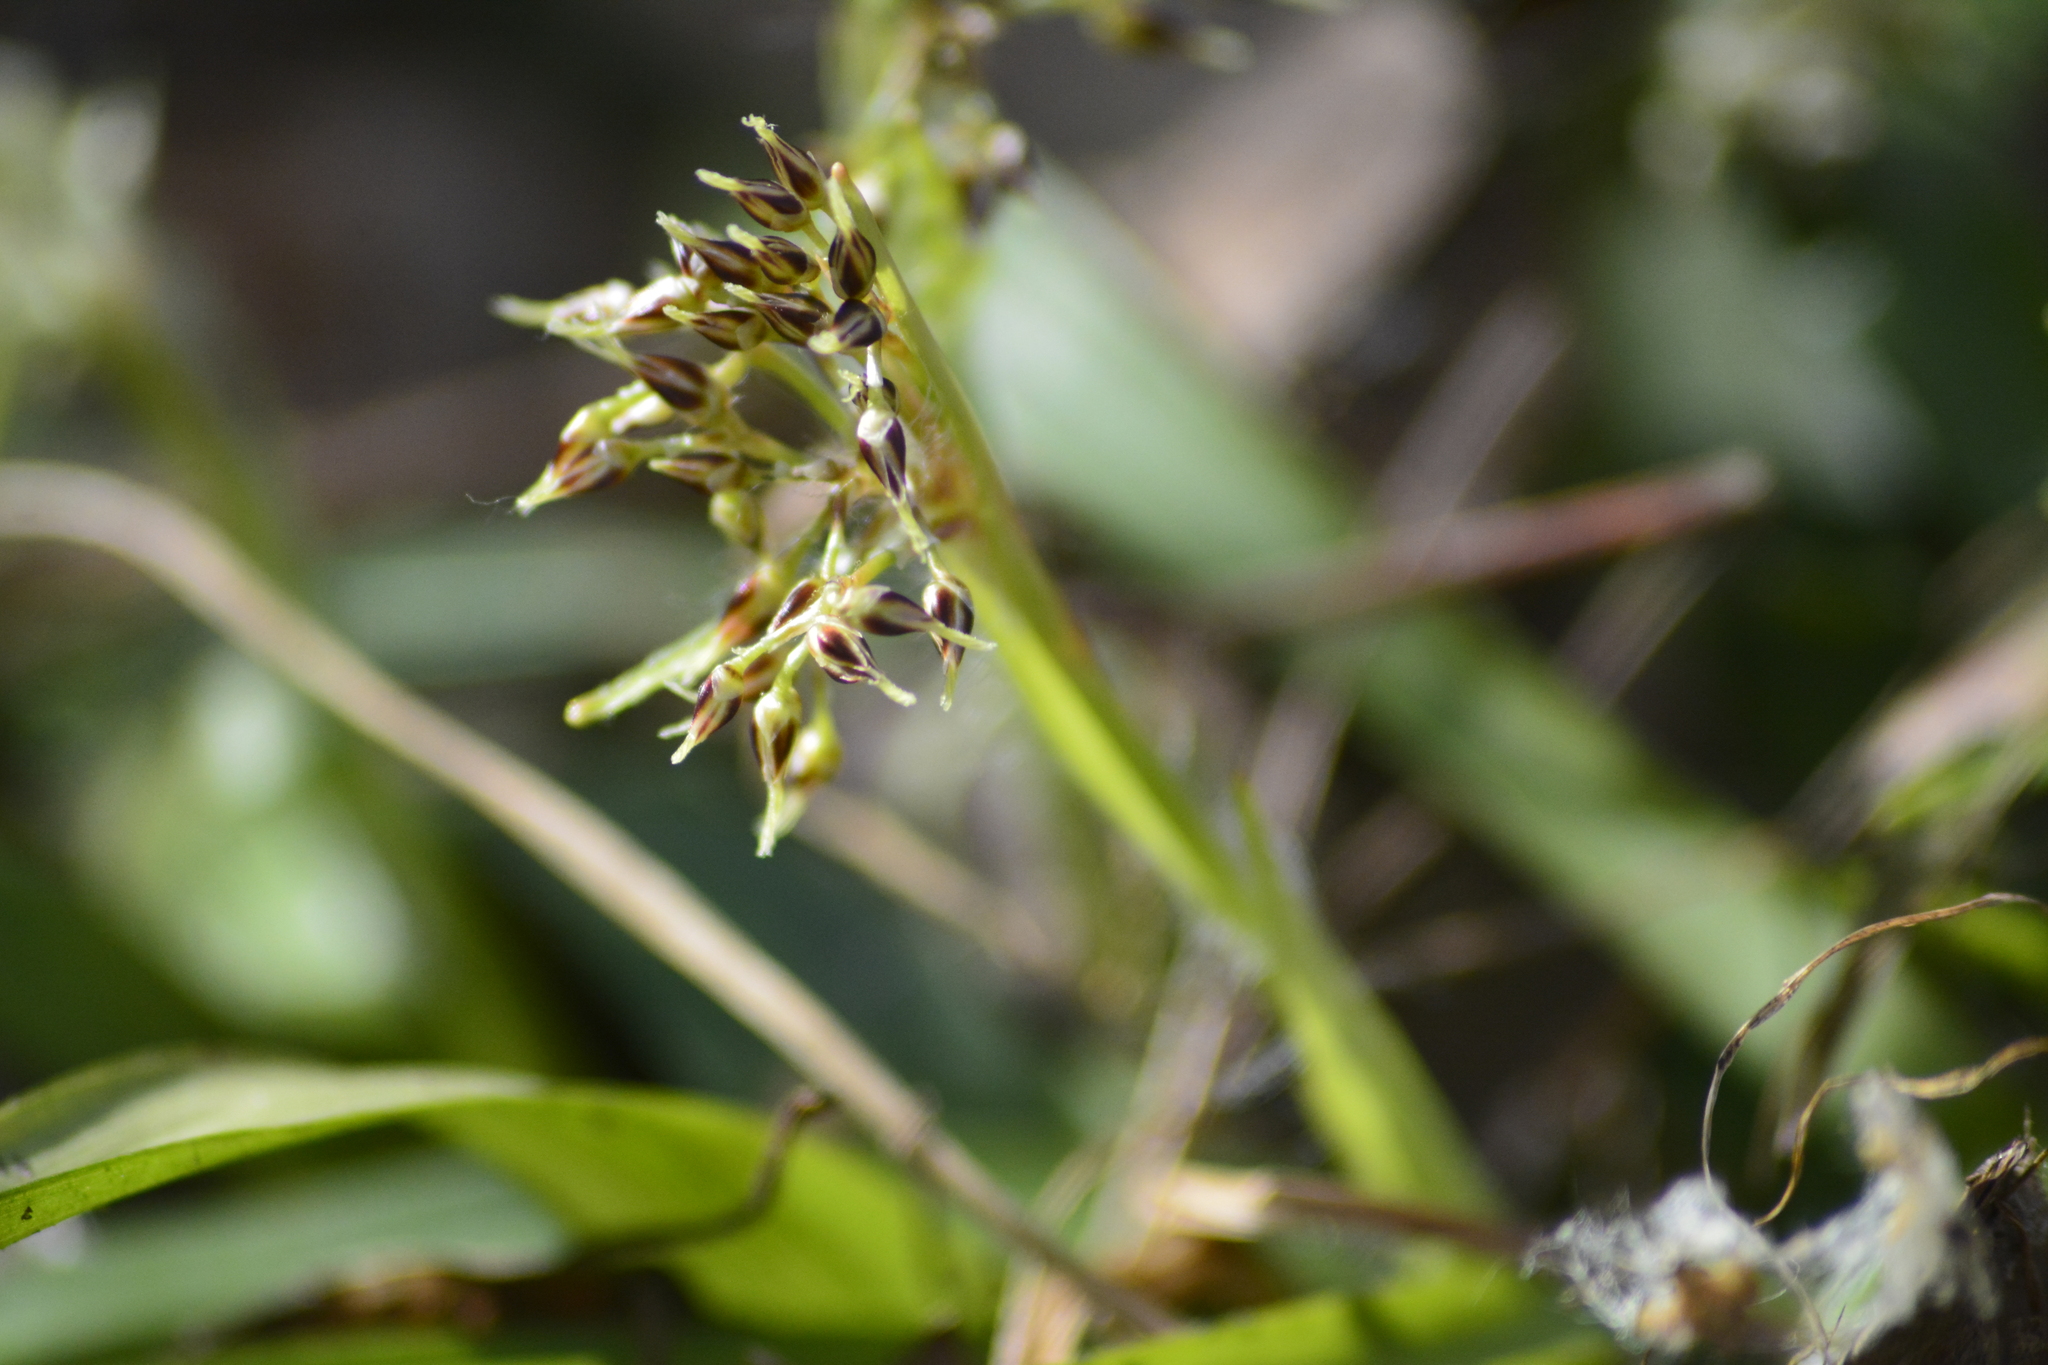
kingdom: Plantae
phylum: Tracheophyta
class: Liliopsida
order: Poales
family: Juncaceae
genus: Luzula
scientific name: Luzula pilosa
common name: Hairy wood-rush
